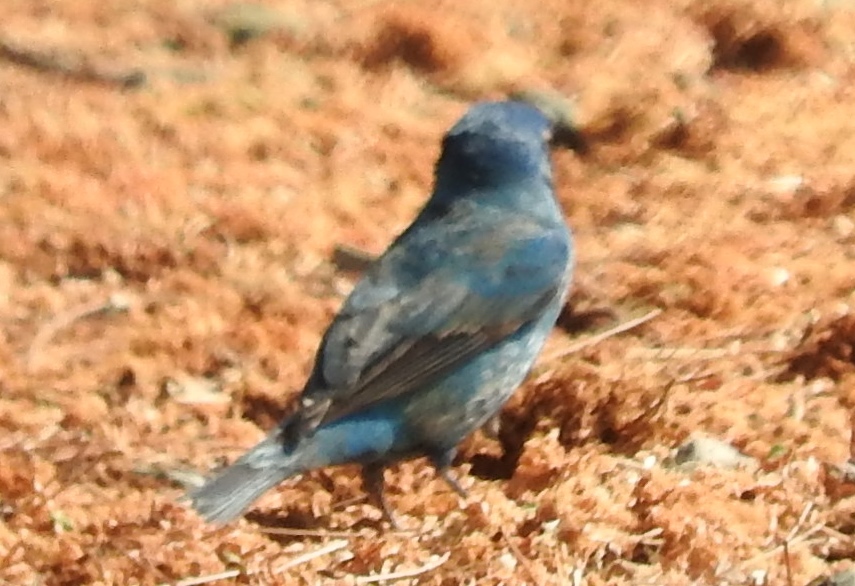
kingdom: Animalia
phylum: Chordata
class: Aves
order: Passeriformes
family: Cardinalidae
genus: Passerina
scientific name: Passerina cyanea
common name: Indigo bunting
